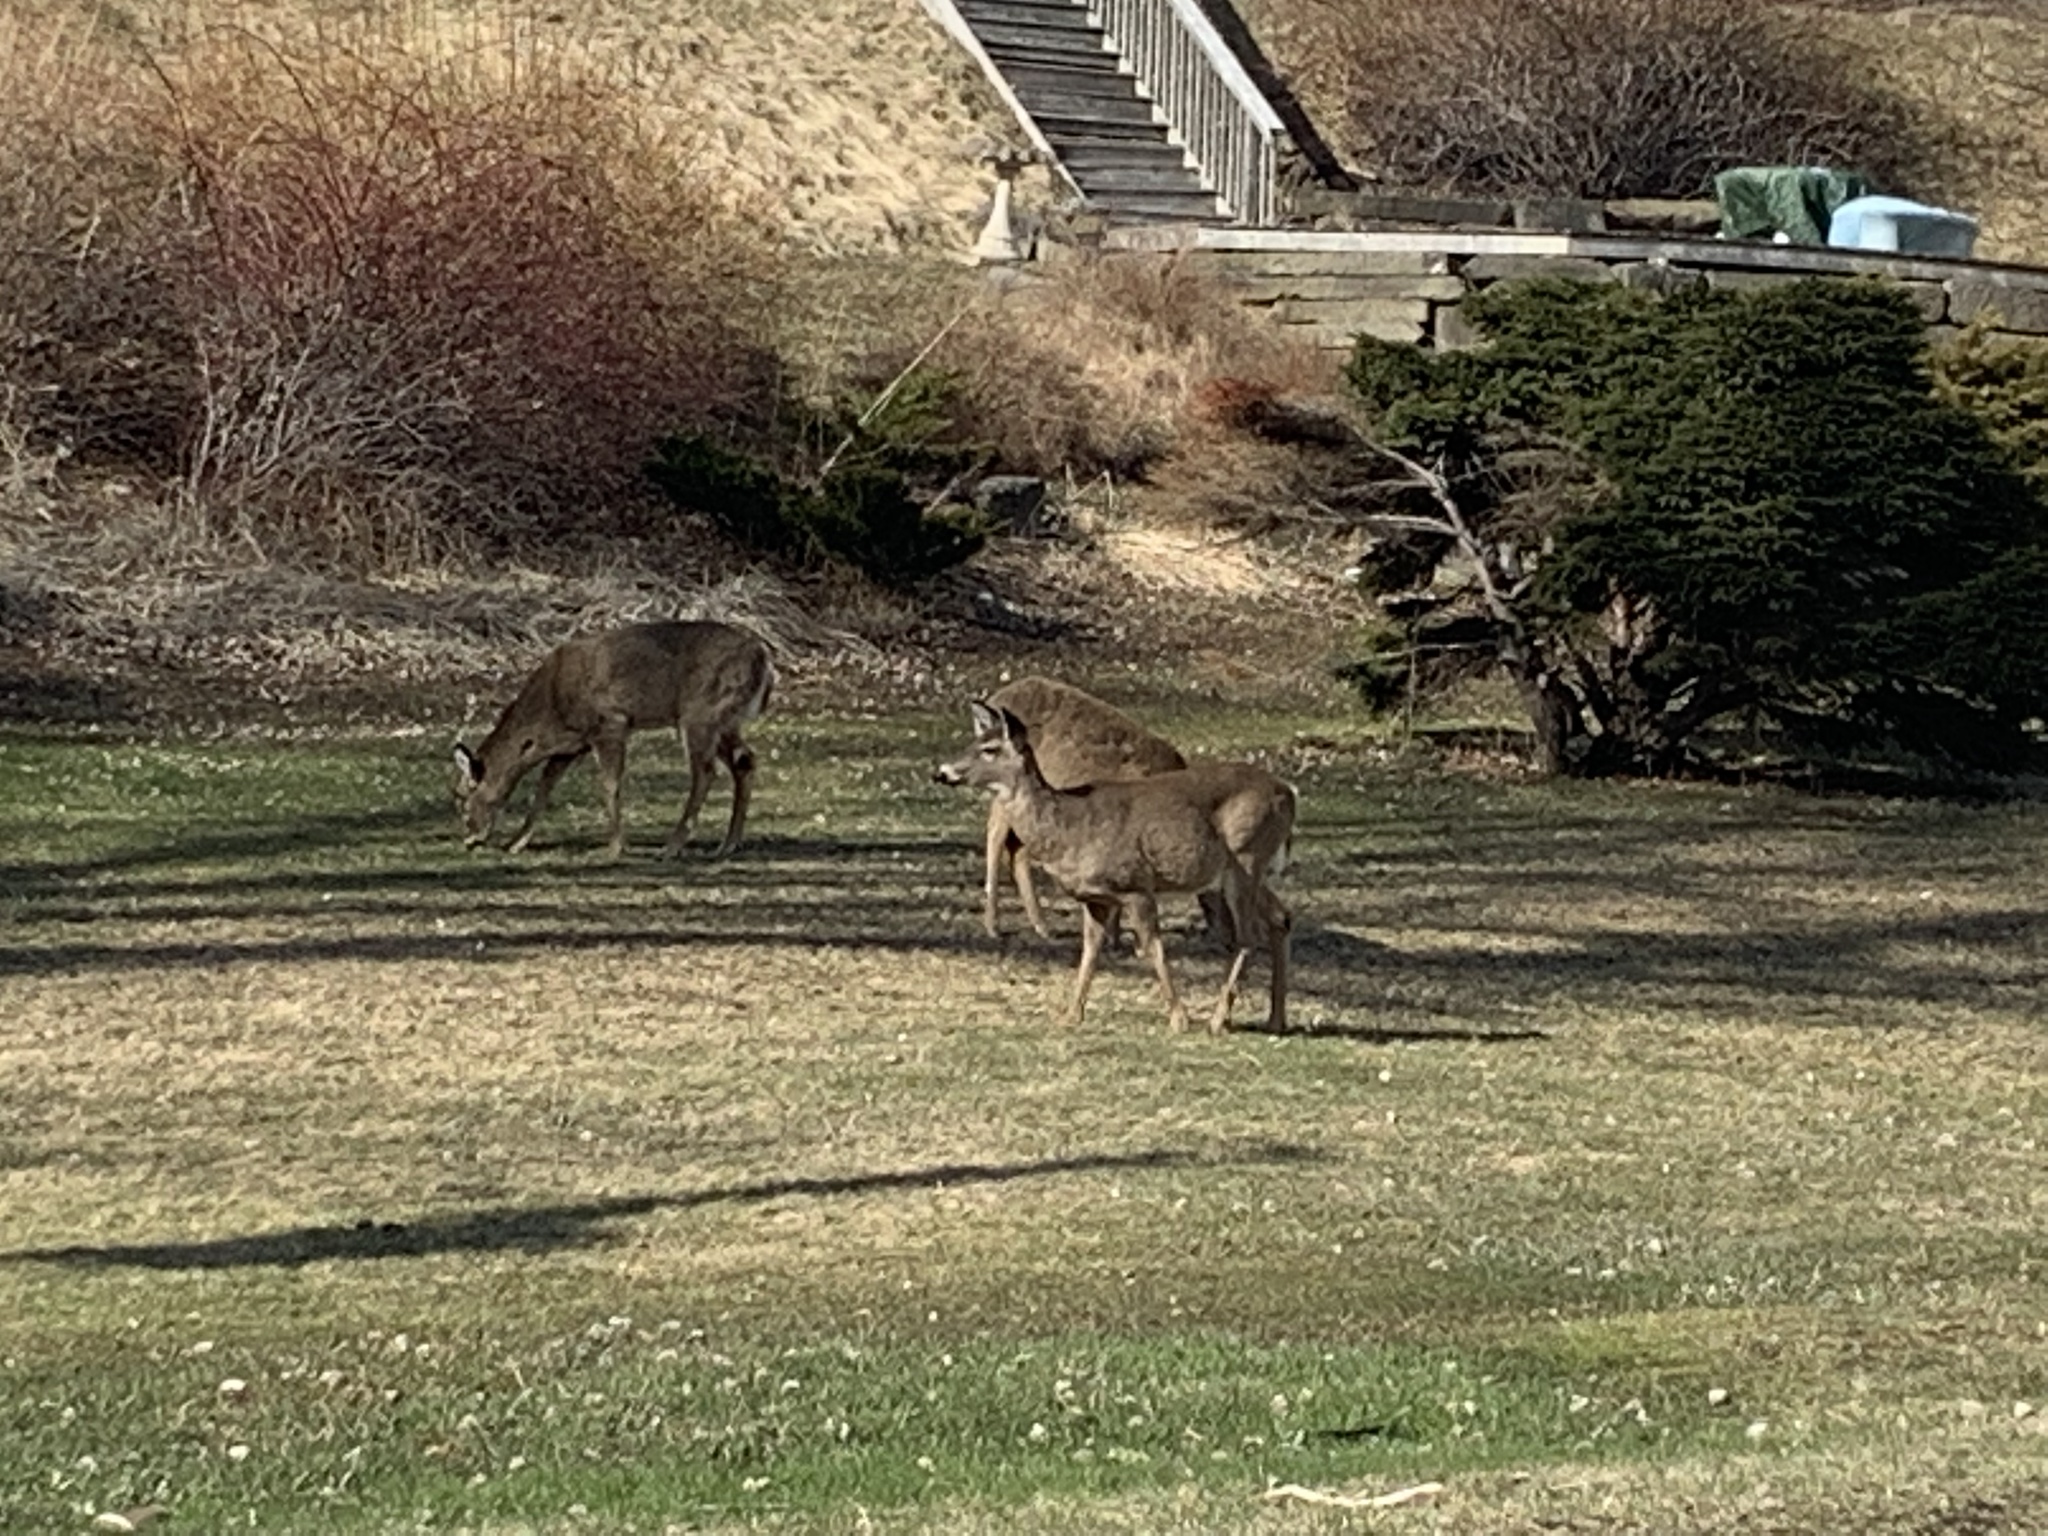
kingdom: Animalia
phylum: Chordata
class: Mammalia
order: Artiodactyla
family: Cervidae
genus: Odocoileus
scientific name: Odocoileus virginianus
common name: White-tailed deer
